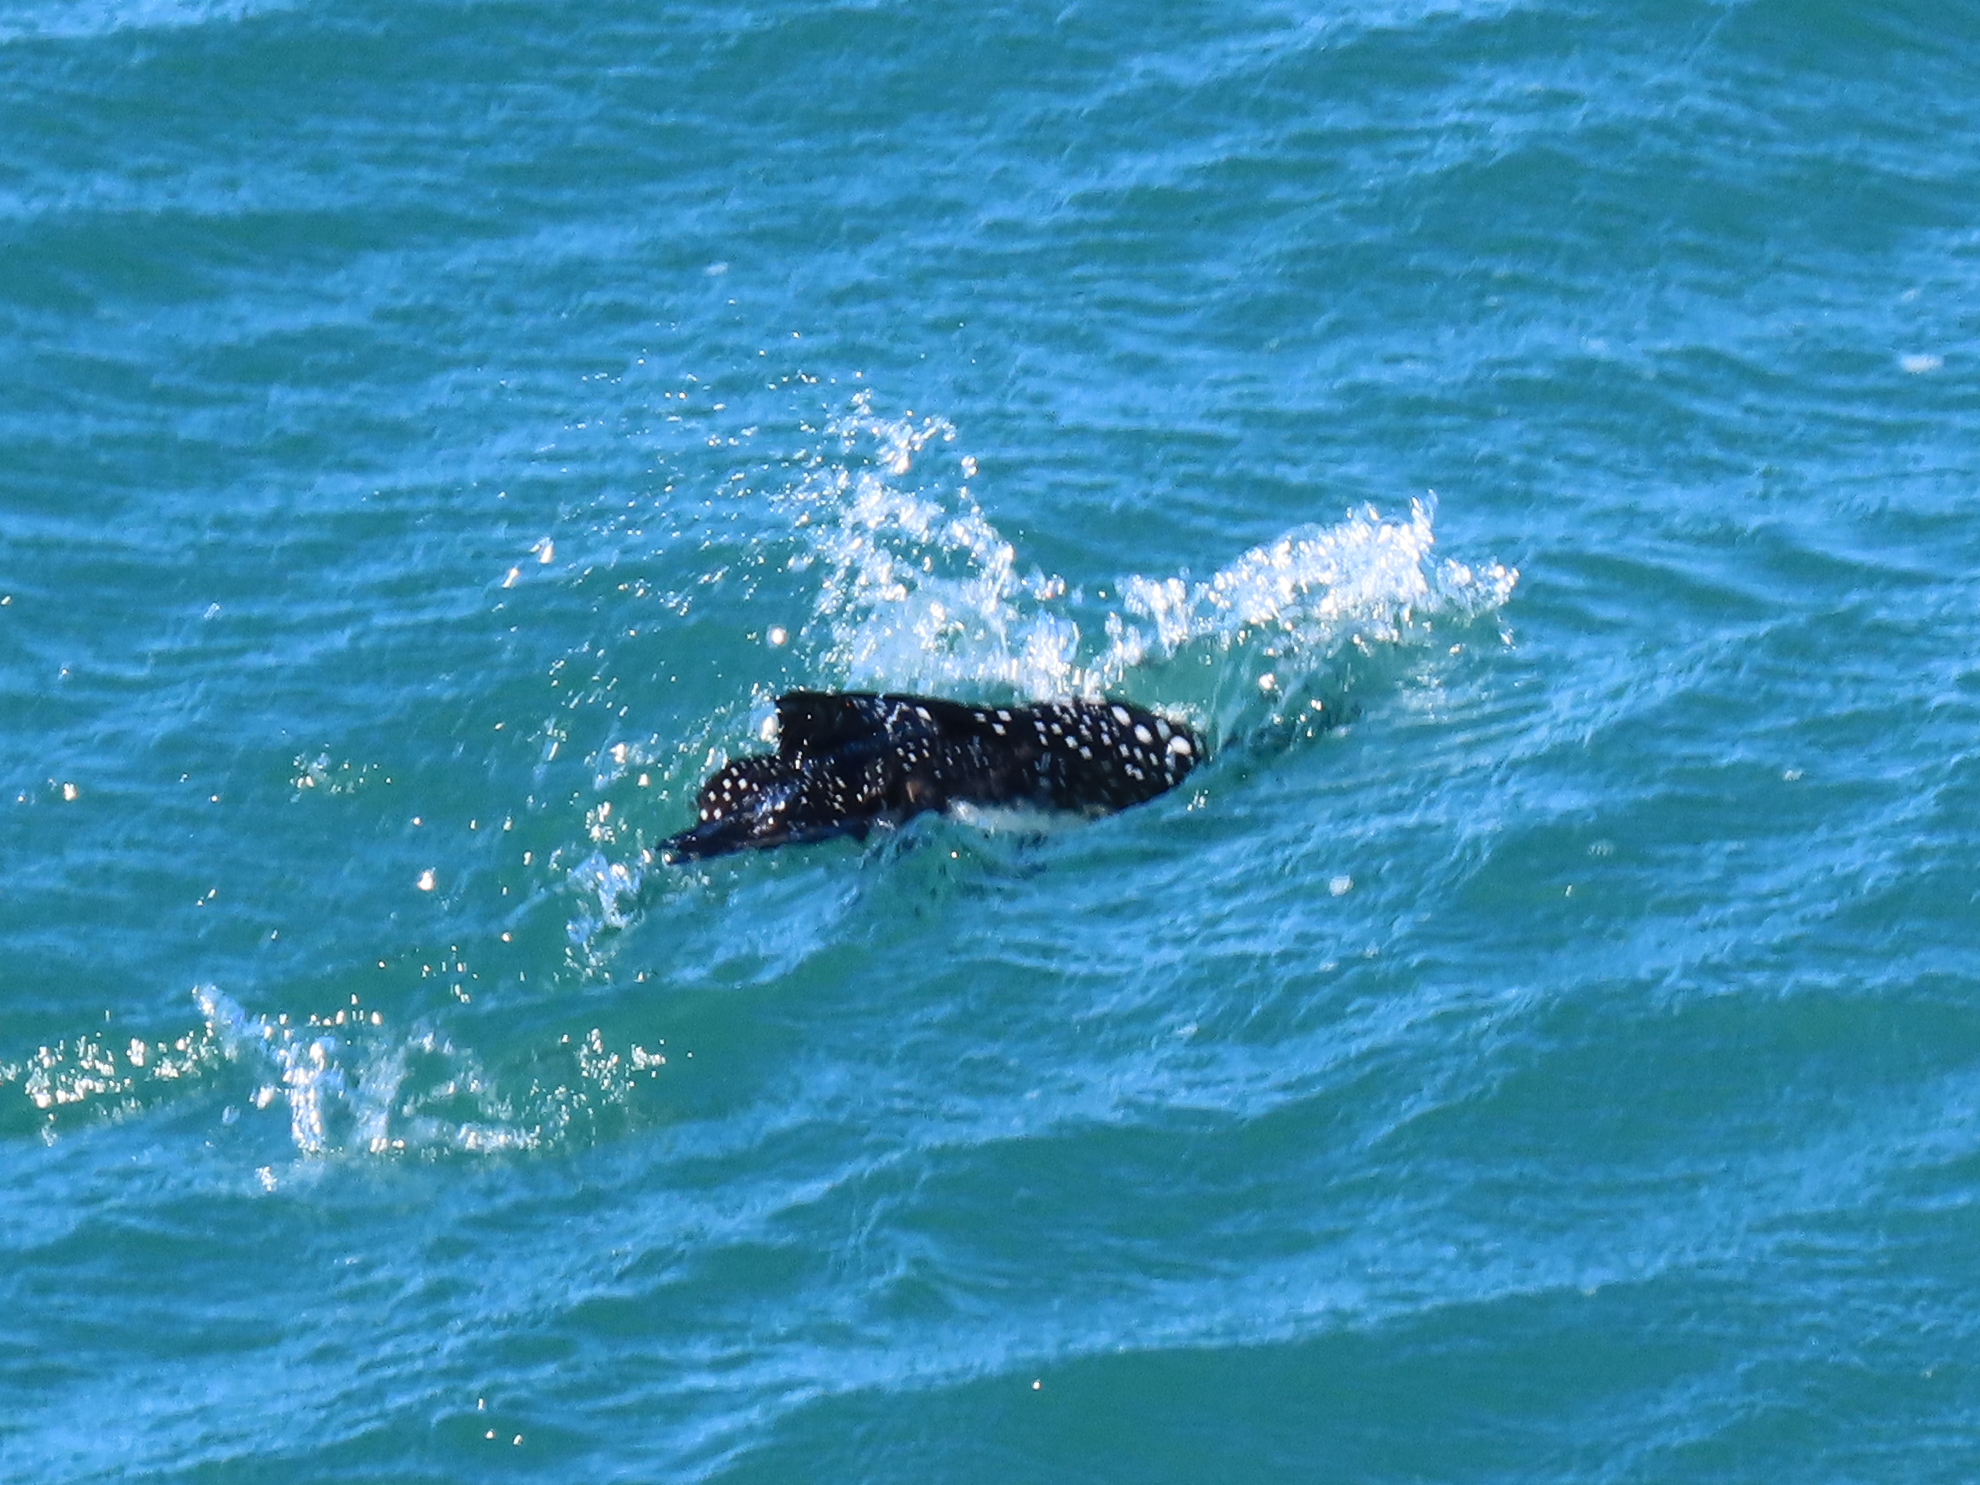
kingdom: Animalia
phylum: Chordata
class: Aves
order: Gaviiformes
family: Gaviidae
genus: Gavia
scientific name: Gavia immer
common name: Common loon
